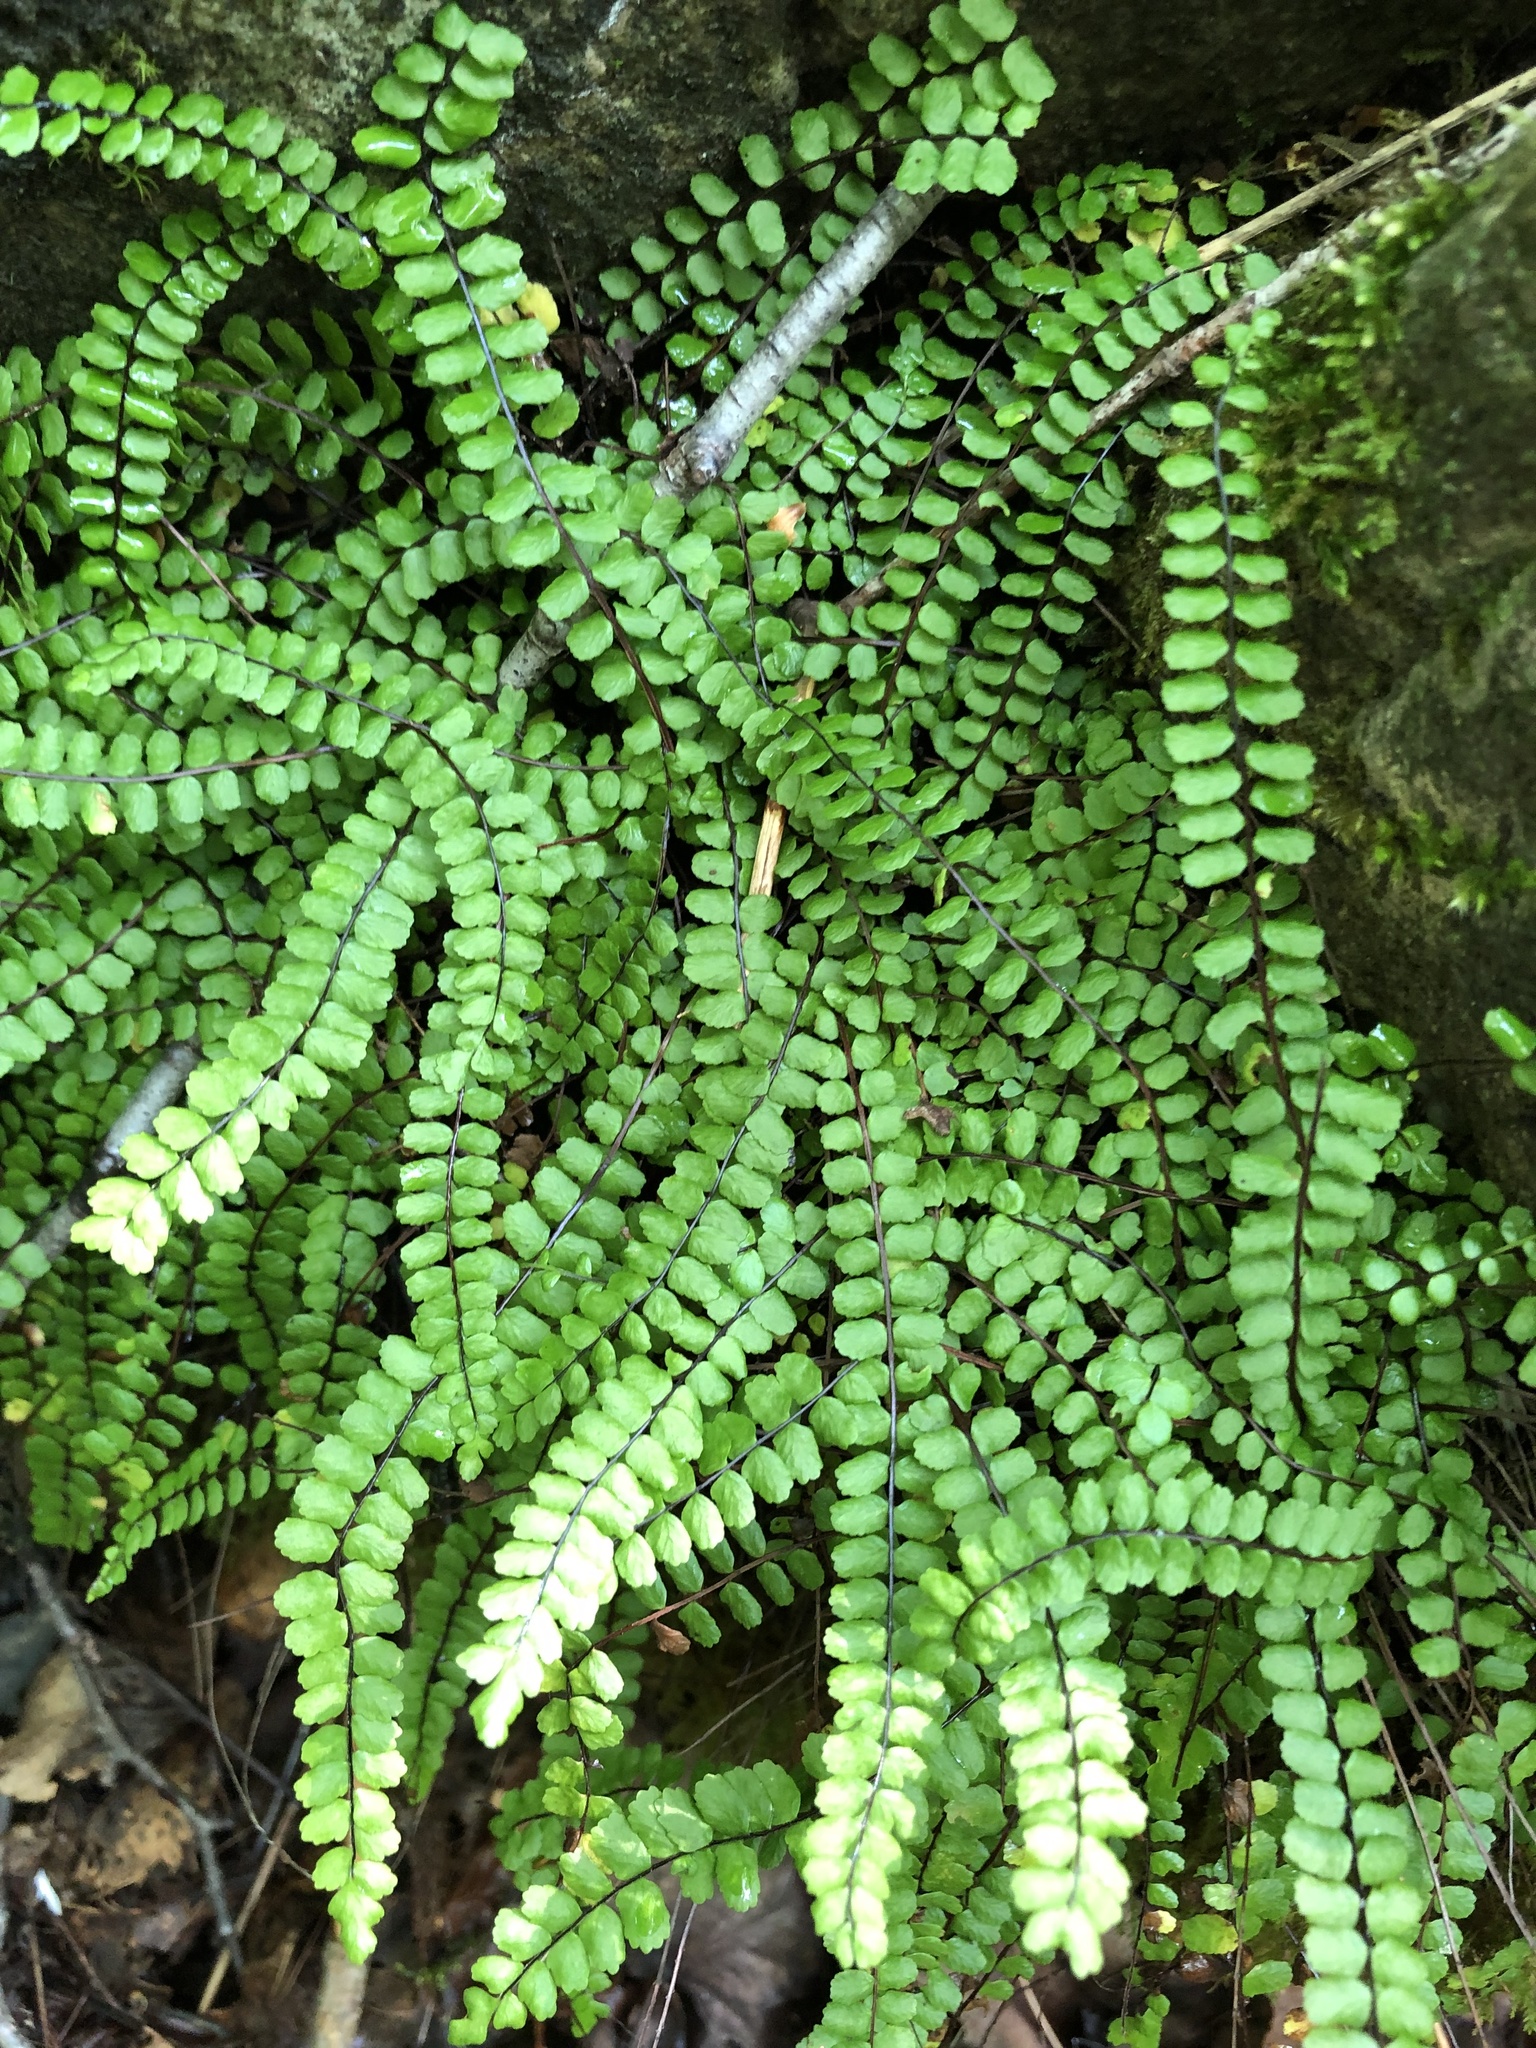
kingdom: Plantae
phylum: Tracheophyta
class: Polypodiopsida
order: Polypodiales
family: Aspleniaceae
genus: Asplenium
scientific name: Asplenium trichomanes
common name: Maidenhair spleenwort
